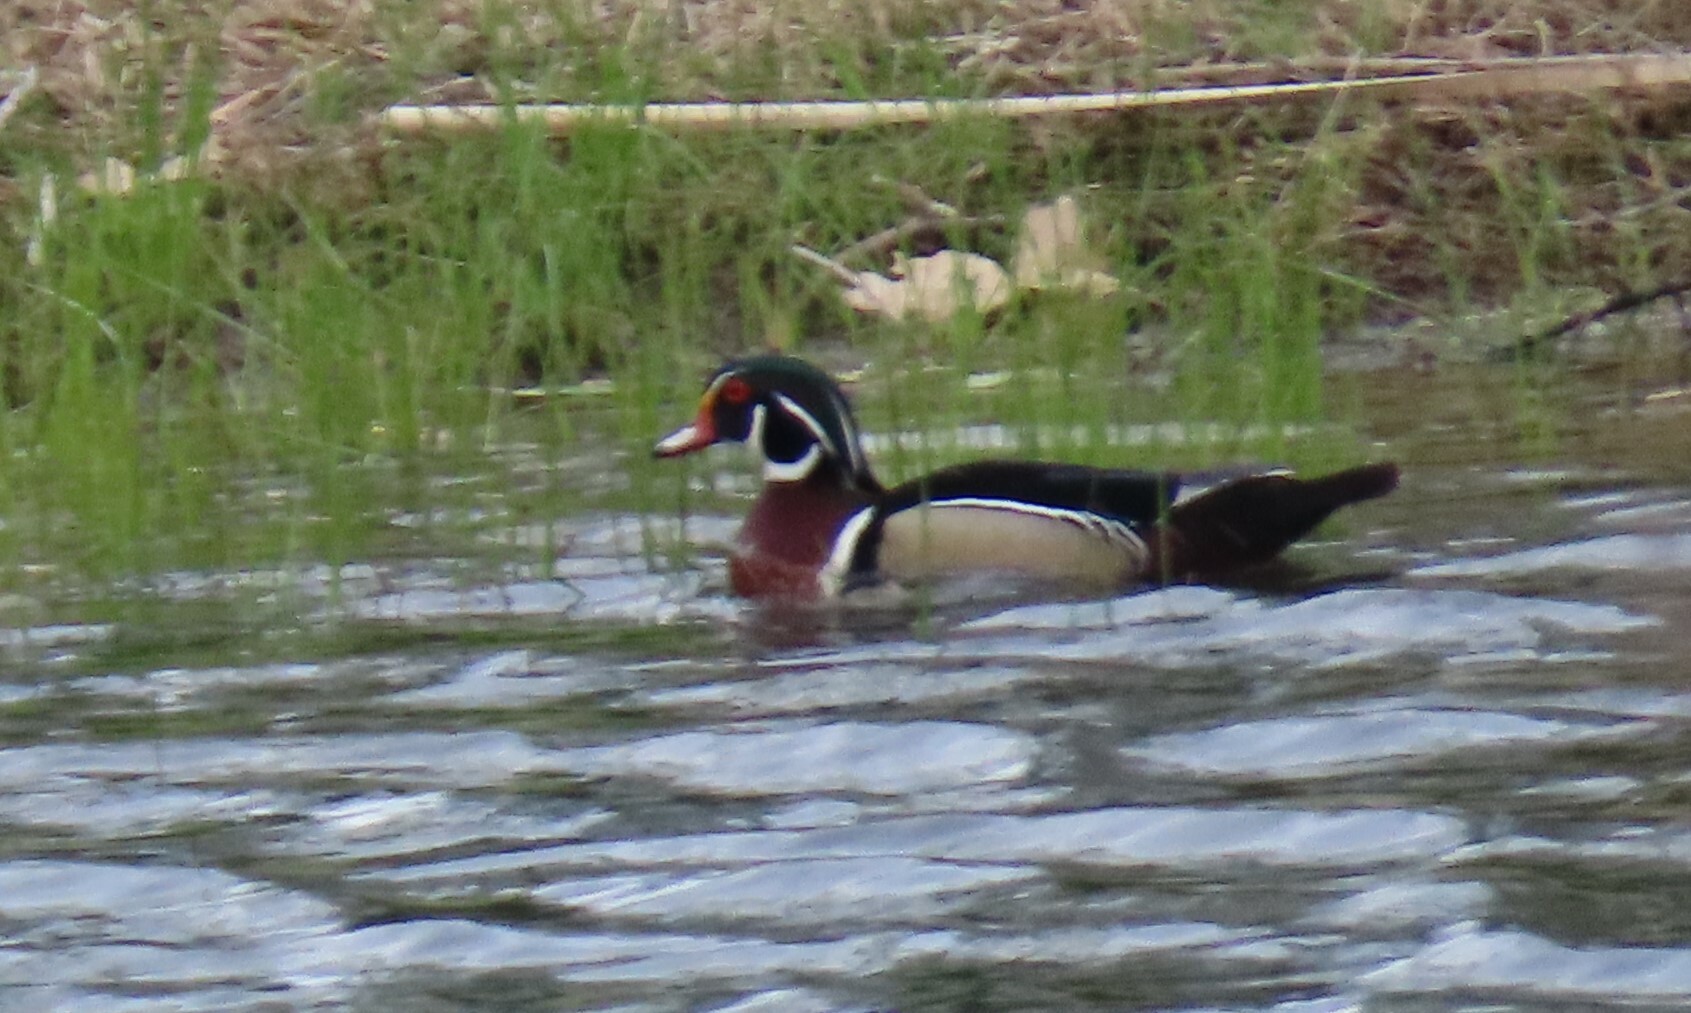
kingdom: Animalia
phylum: Chordata
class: Aves
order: Anseriformes
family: Anatidae
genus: Aix
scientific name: Aix sponsa
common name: Wood duck
